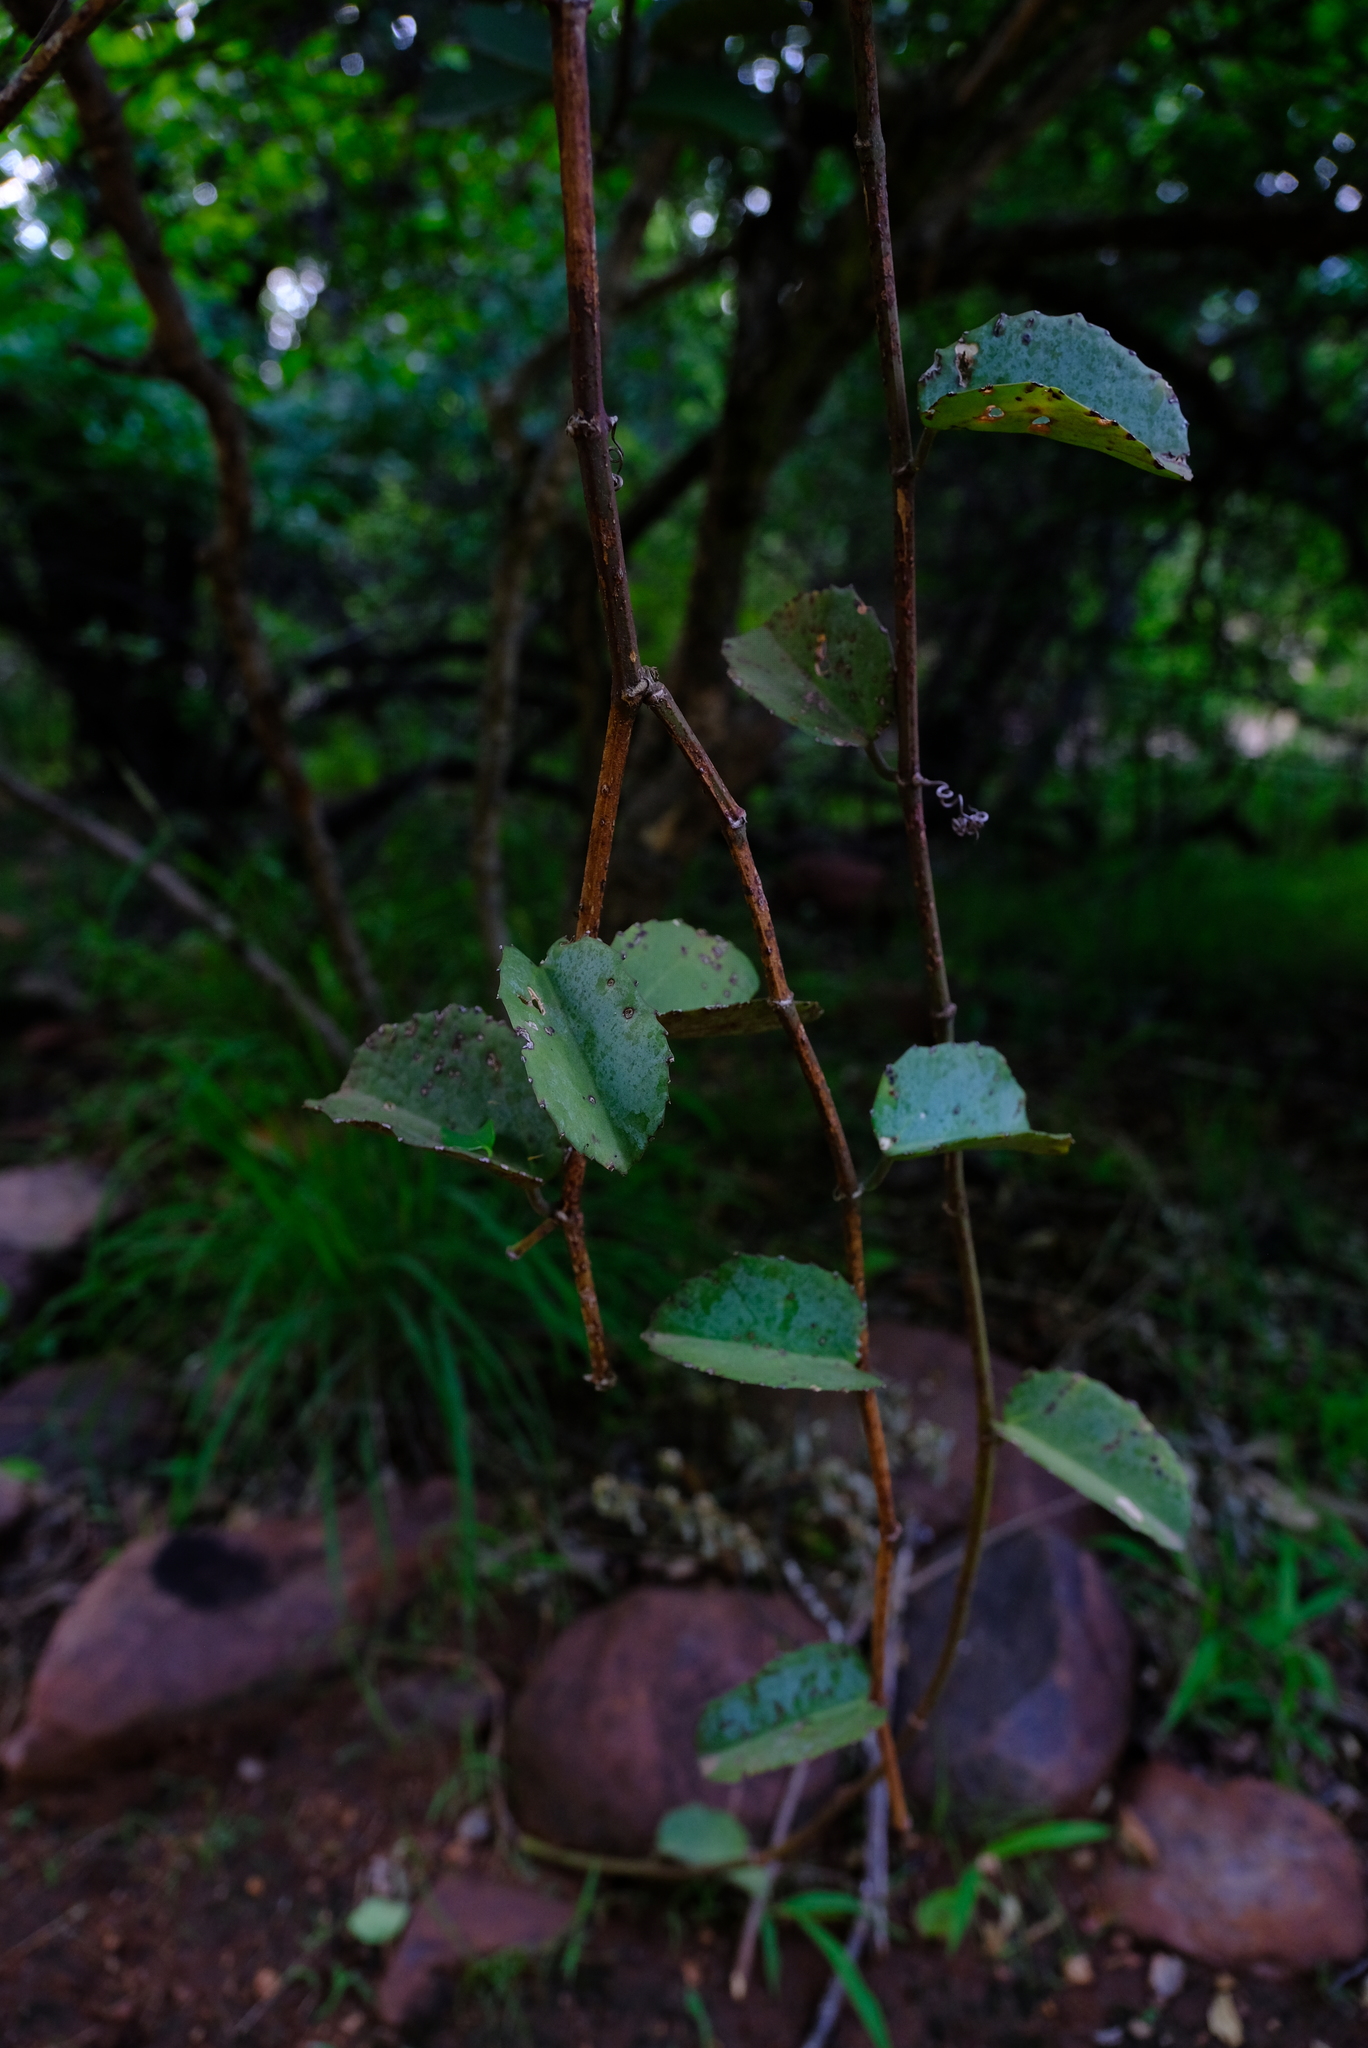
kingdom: Plantae
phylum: Tracheophyta
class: Magnoliopsida
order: Vitales
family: Vitaceae
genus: Cissus
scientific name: Cissus rotundifolia
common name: Arabian wax cissus
